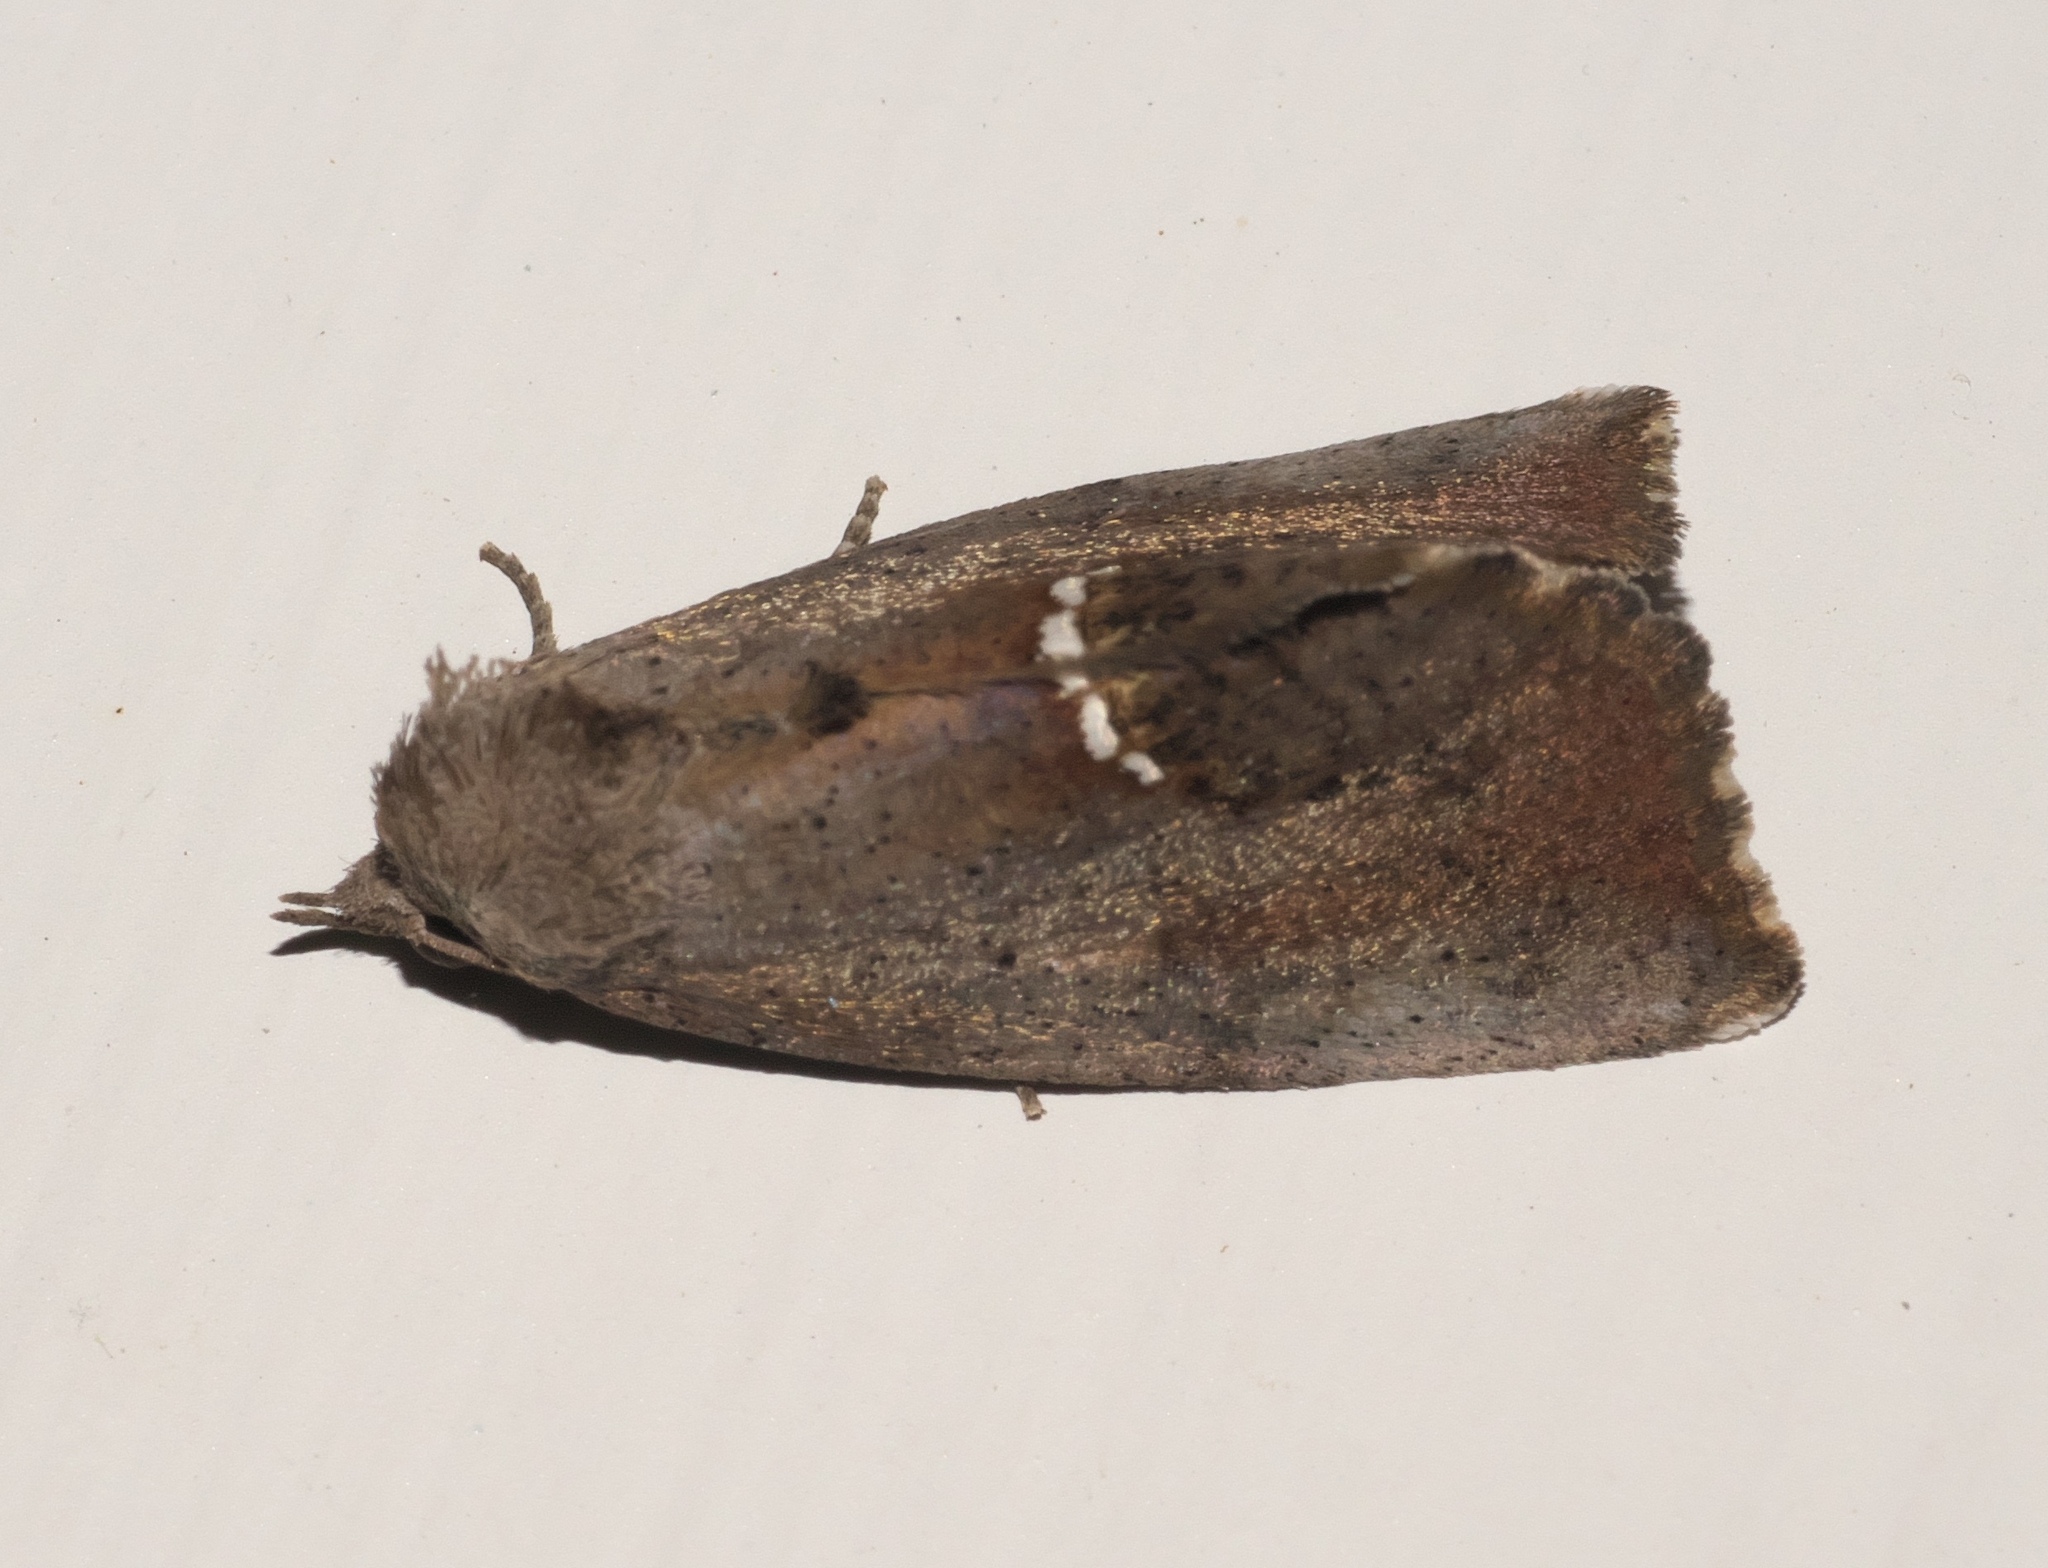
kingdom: Animalia
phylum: Arthropoda
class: Insecta
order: Lepidoptera
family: Erebidae
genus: Hypsoropha
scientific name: Hypsoropha hormos
